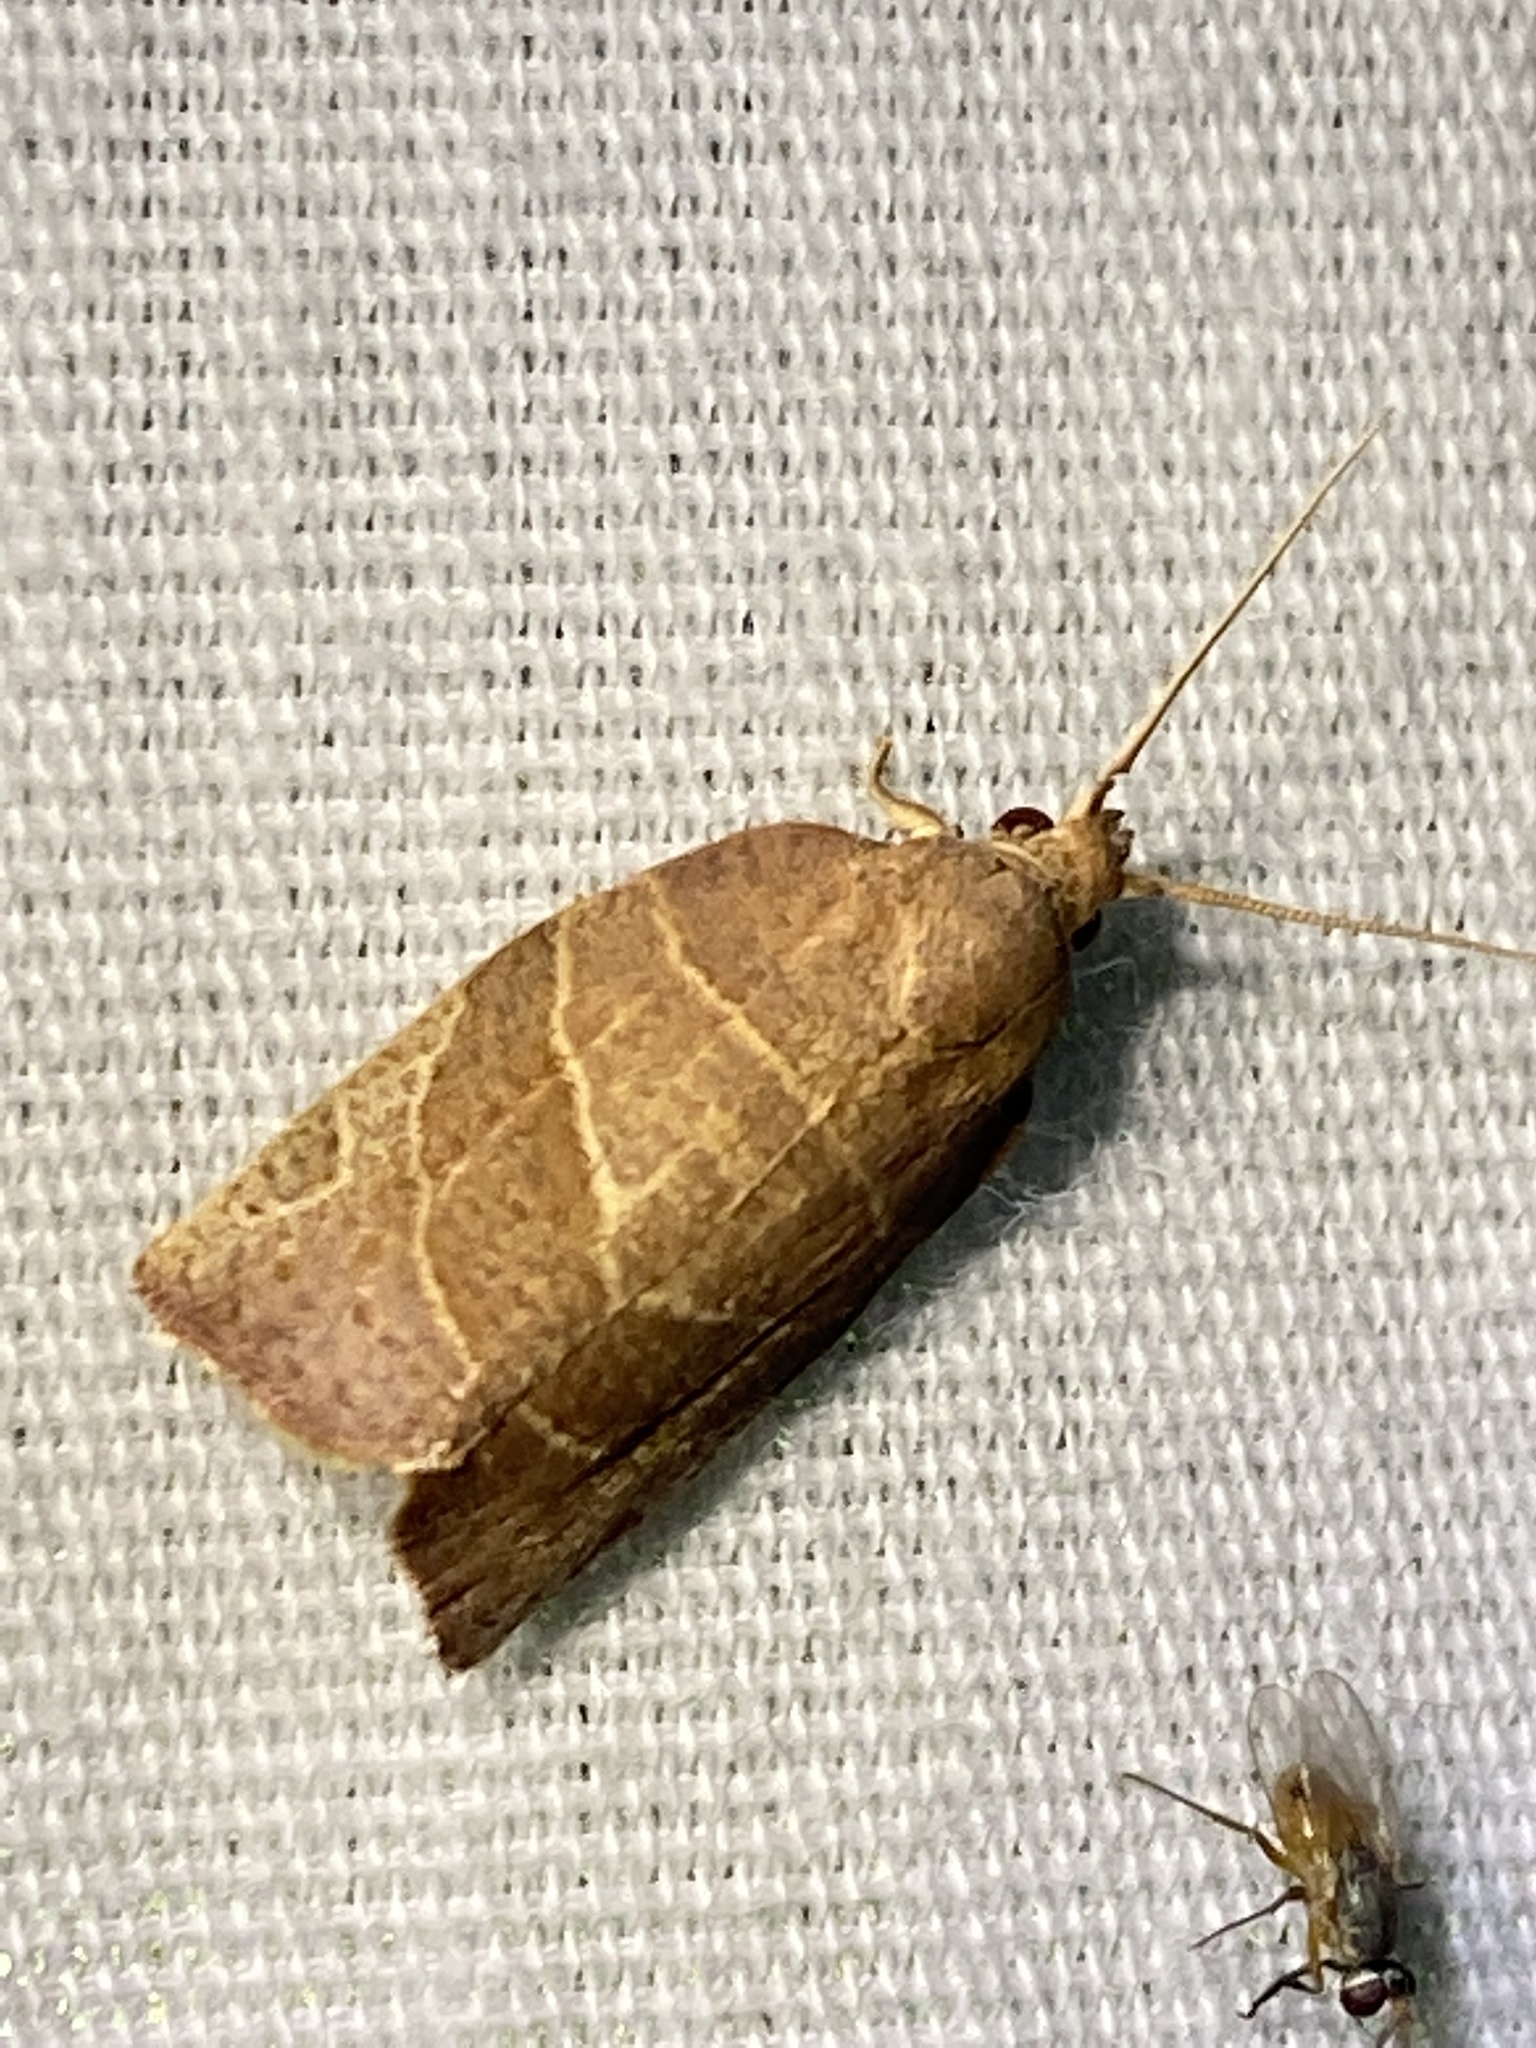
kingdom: Animalia
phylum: Arthropoda
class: Insecta
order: Lepidoptera
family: Tortricidae
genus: Pandemis
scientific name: Pandemis limitata
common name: Three-lined leafroller moth
